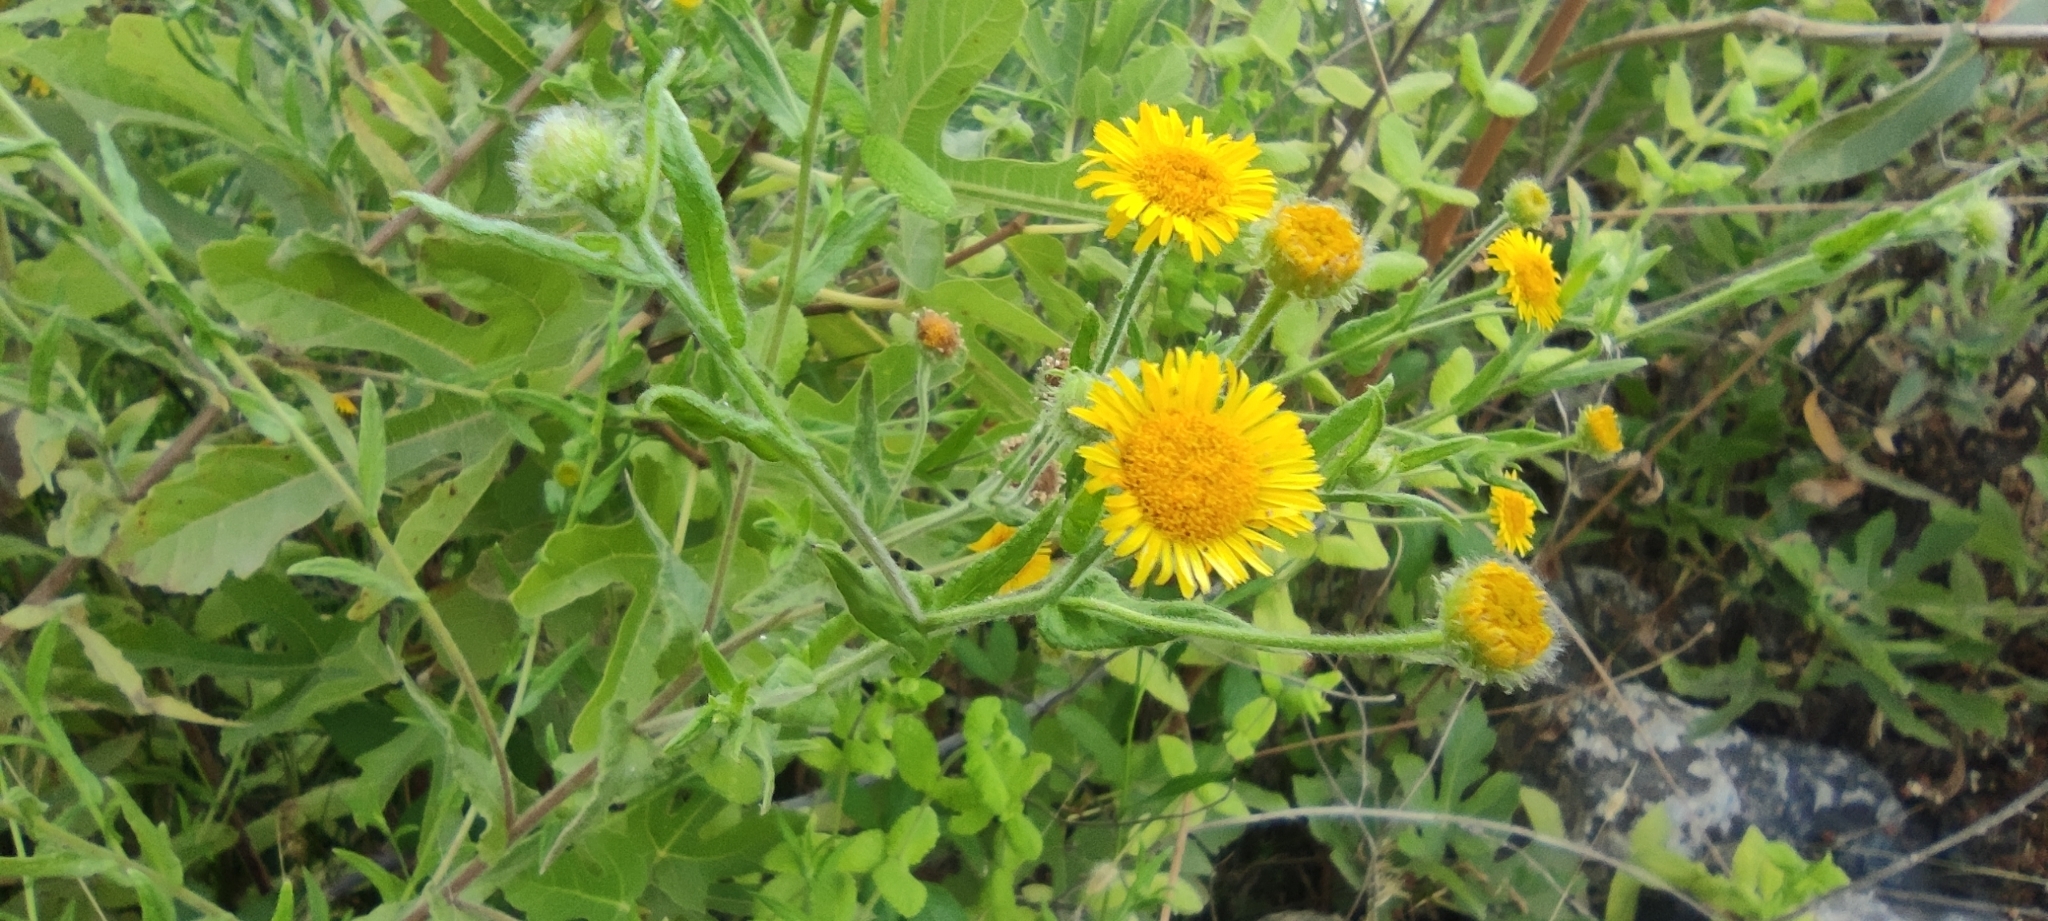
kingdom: Plantae
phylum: Tracheophyta
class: Magnoliopsida
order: Asterales
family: Asteraceae
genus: Pulicaria
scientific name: Pulicaria dysenterica
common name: Common fleabane
